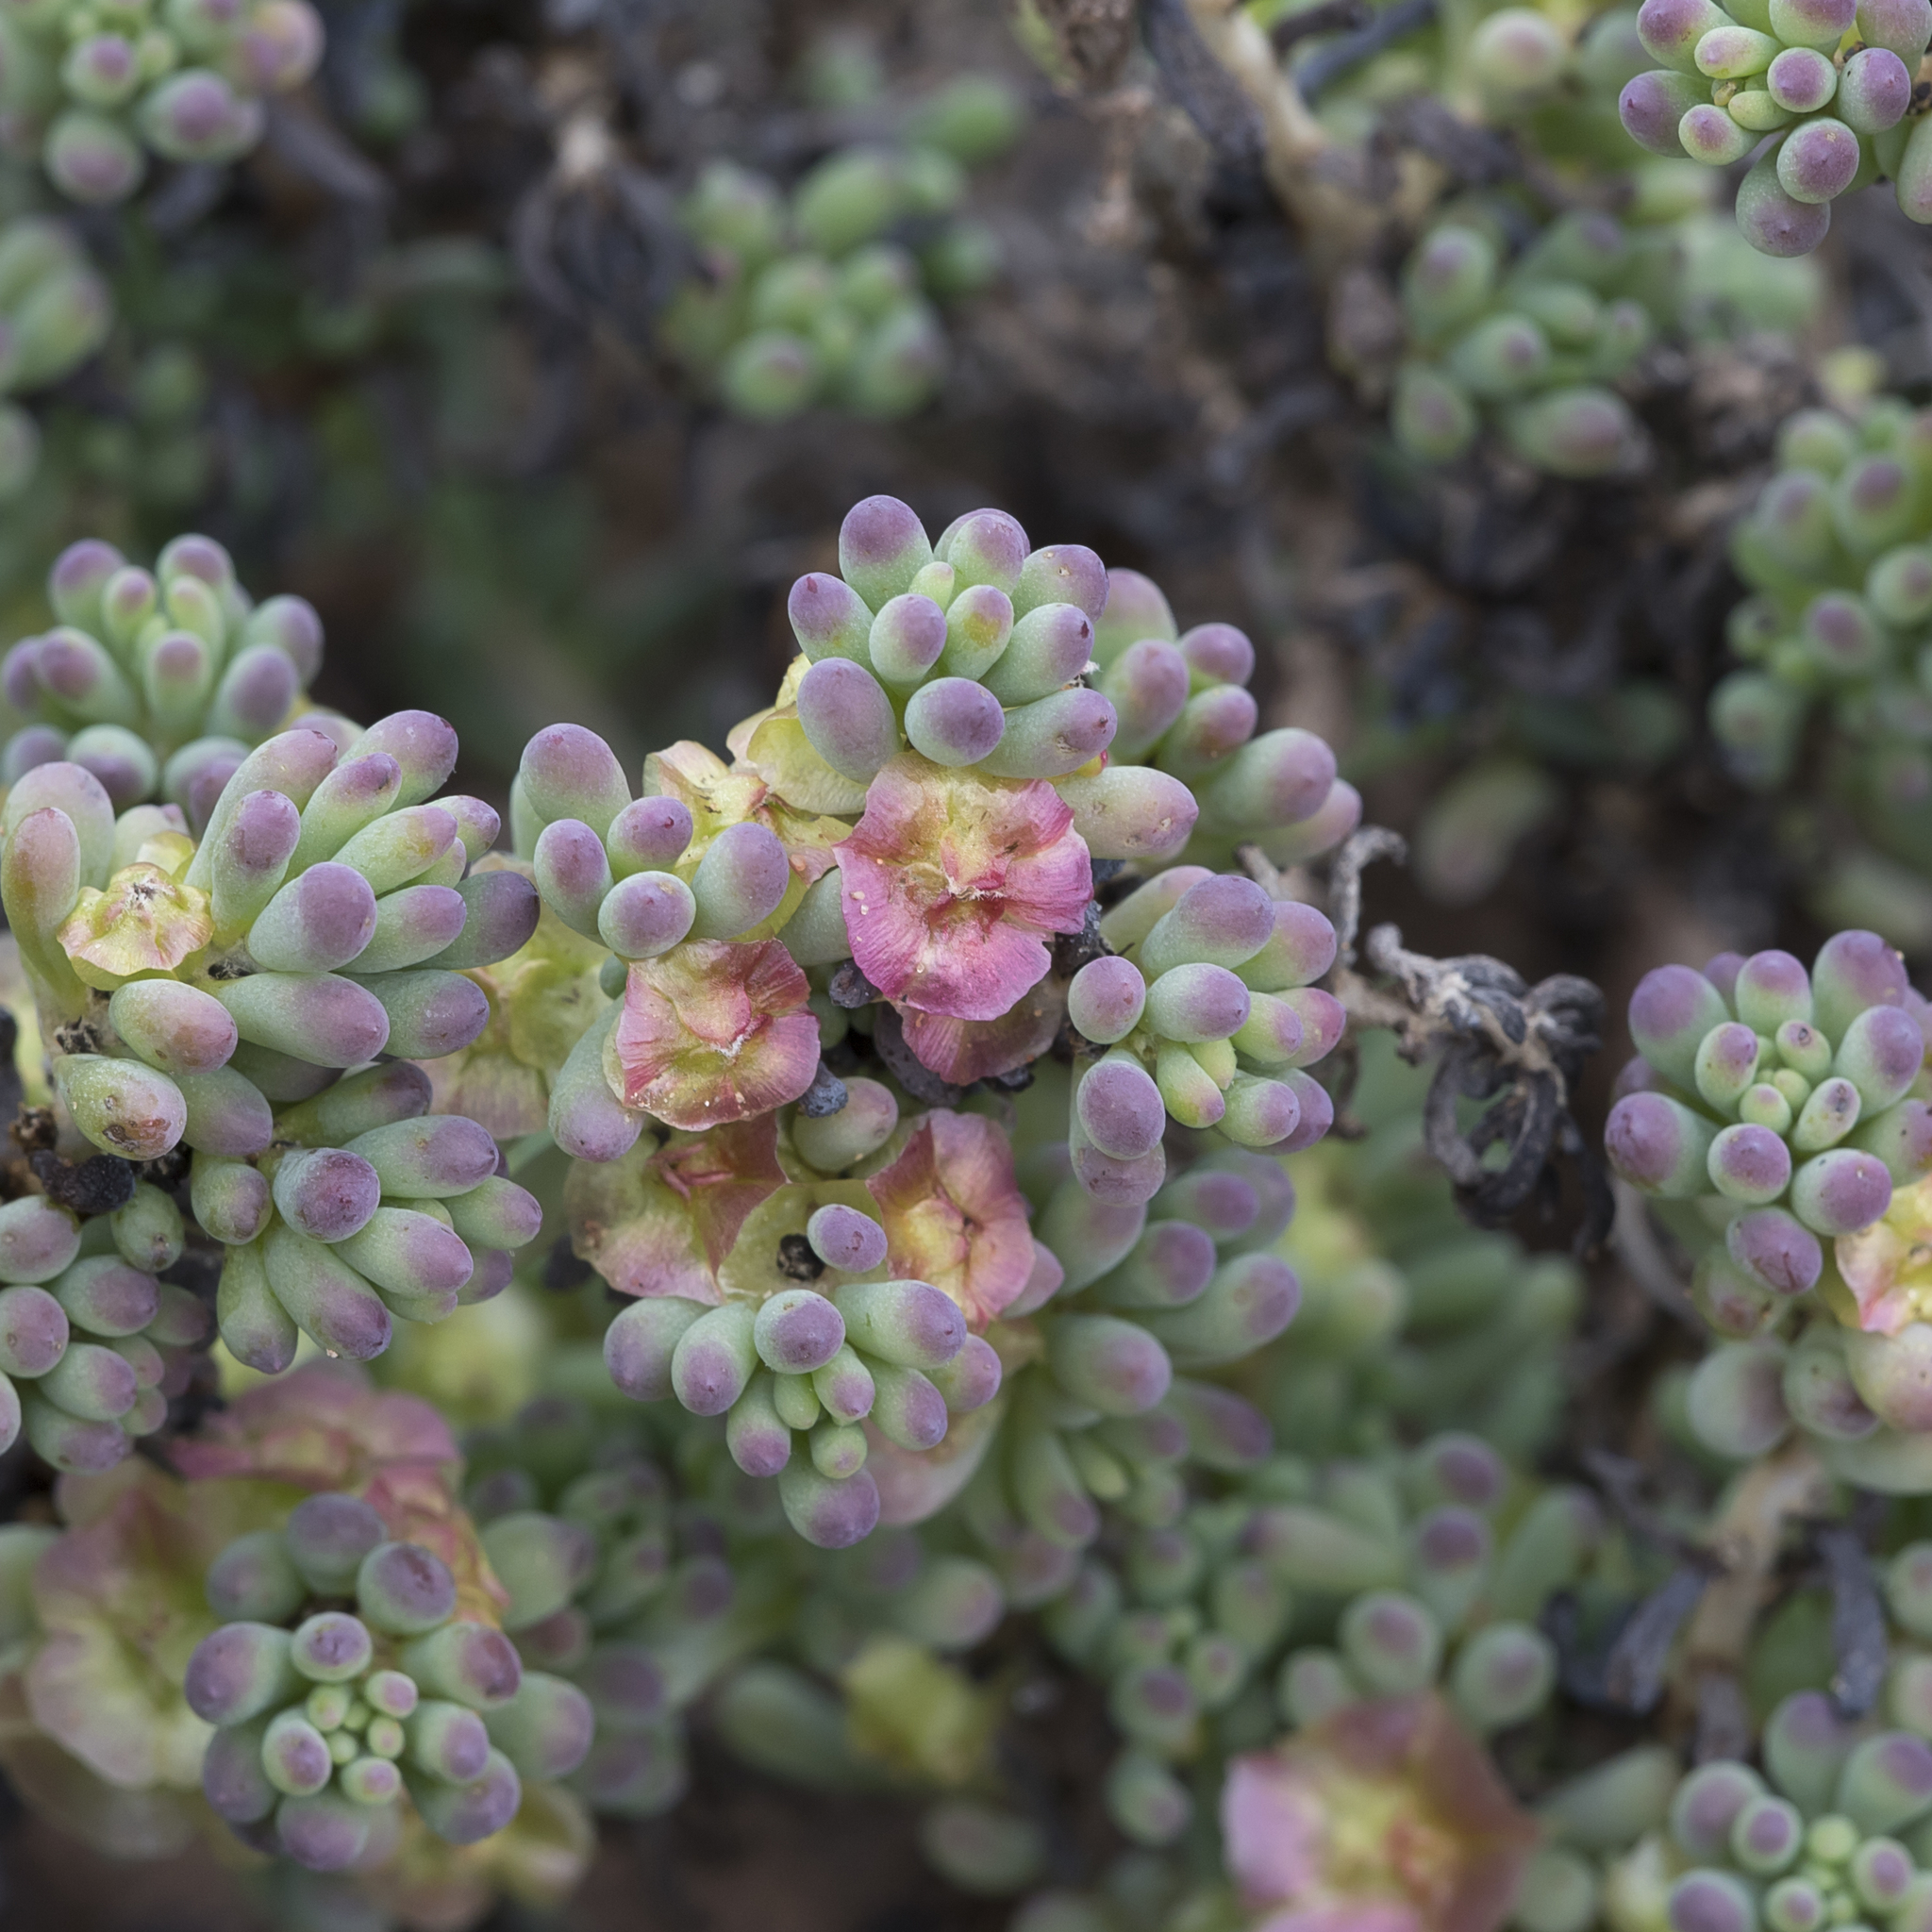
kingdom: Plantae
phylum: Tracheophyta
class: Magnoliopsida
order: Caryophyllales
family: Amaranthaceae
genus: Maireana
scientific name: Maireana erioclada
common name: Rosy bluebush
